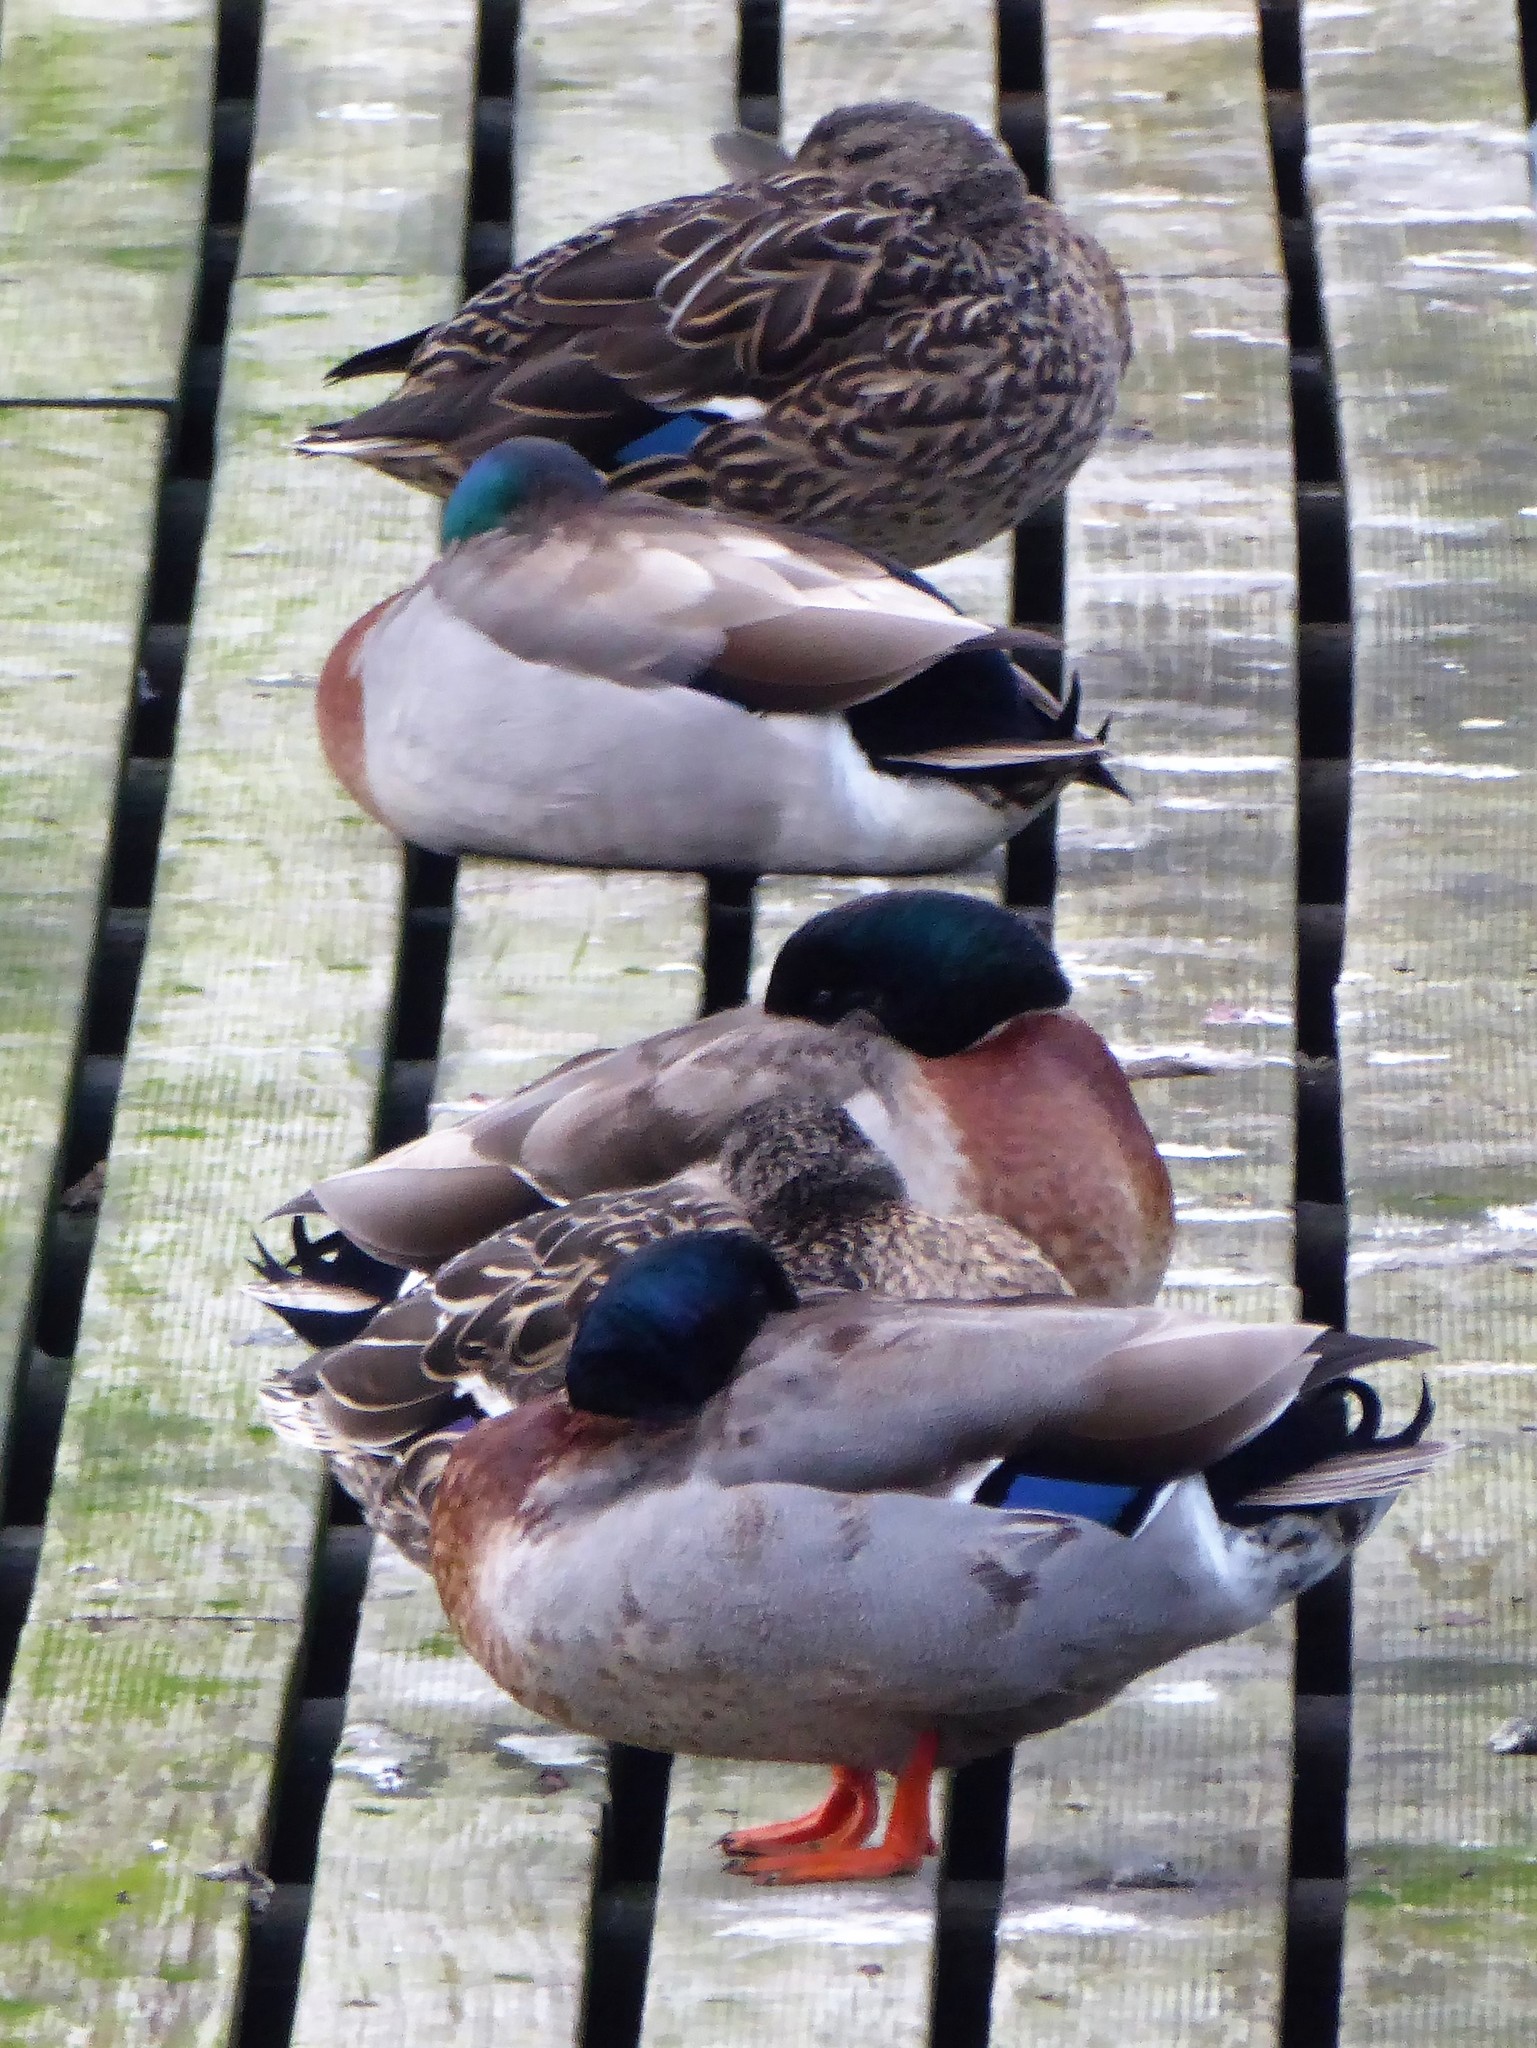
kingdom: Animalia
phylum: Chordata
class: Aves
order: Anseriformes
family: Anatidae
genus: Anas
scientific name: Anas platyrhynchos
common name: Mallard
